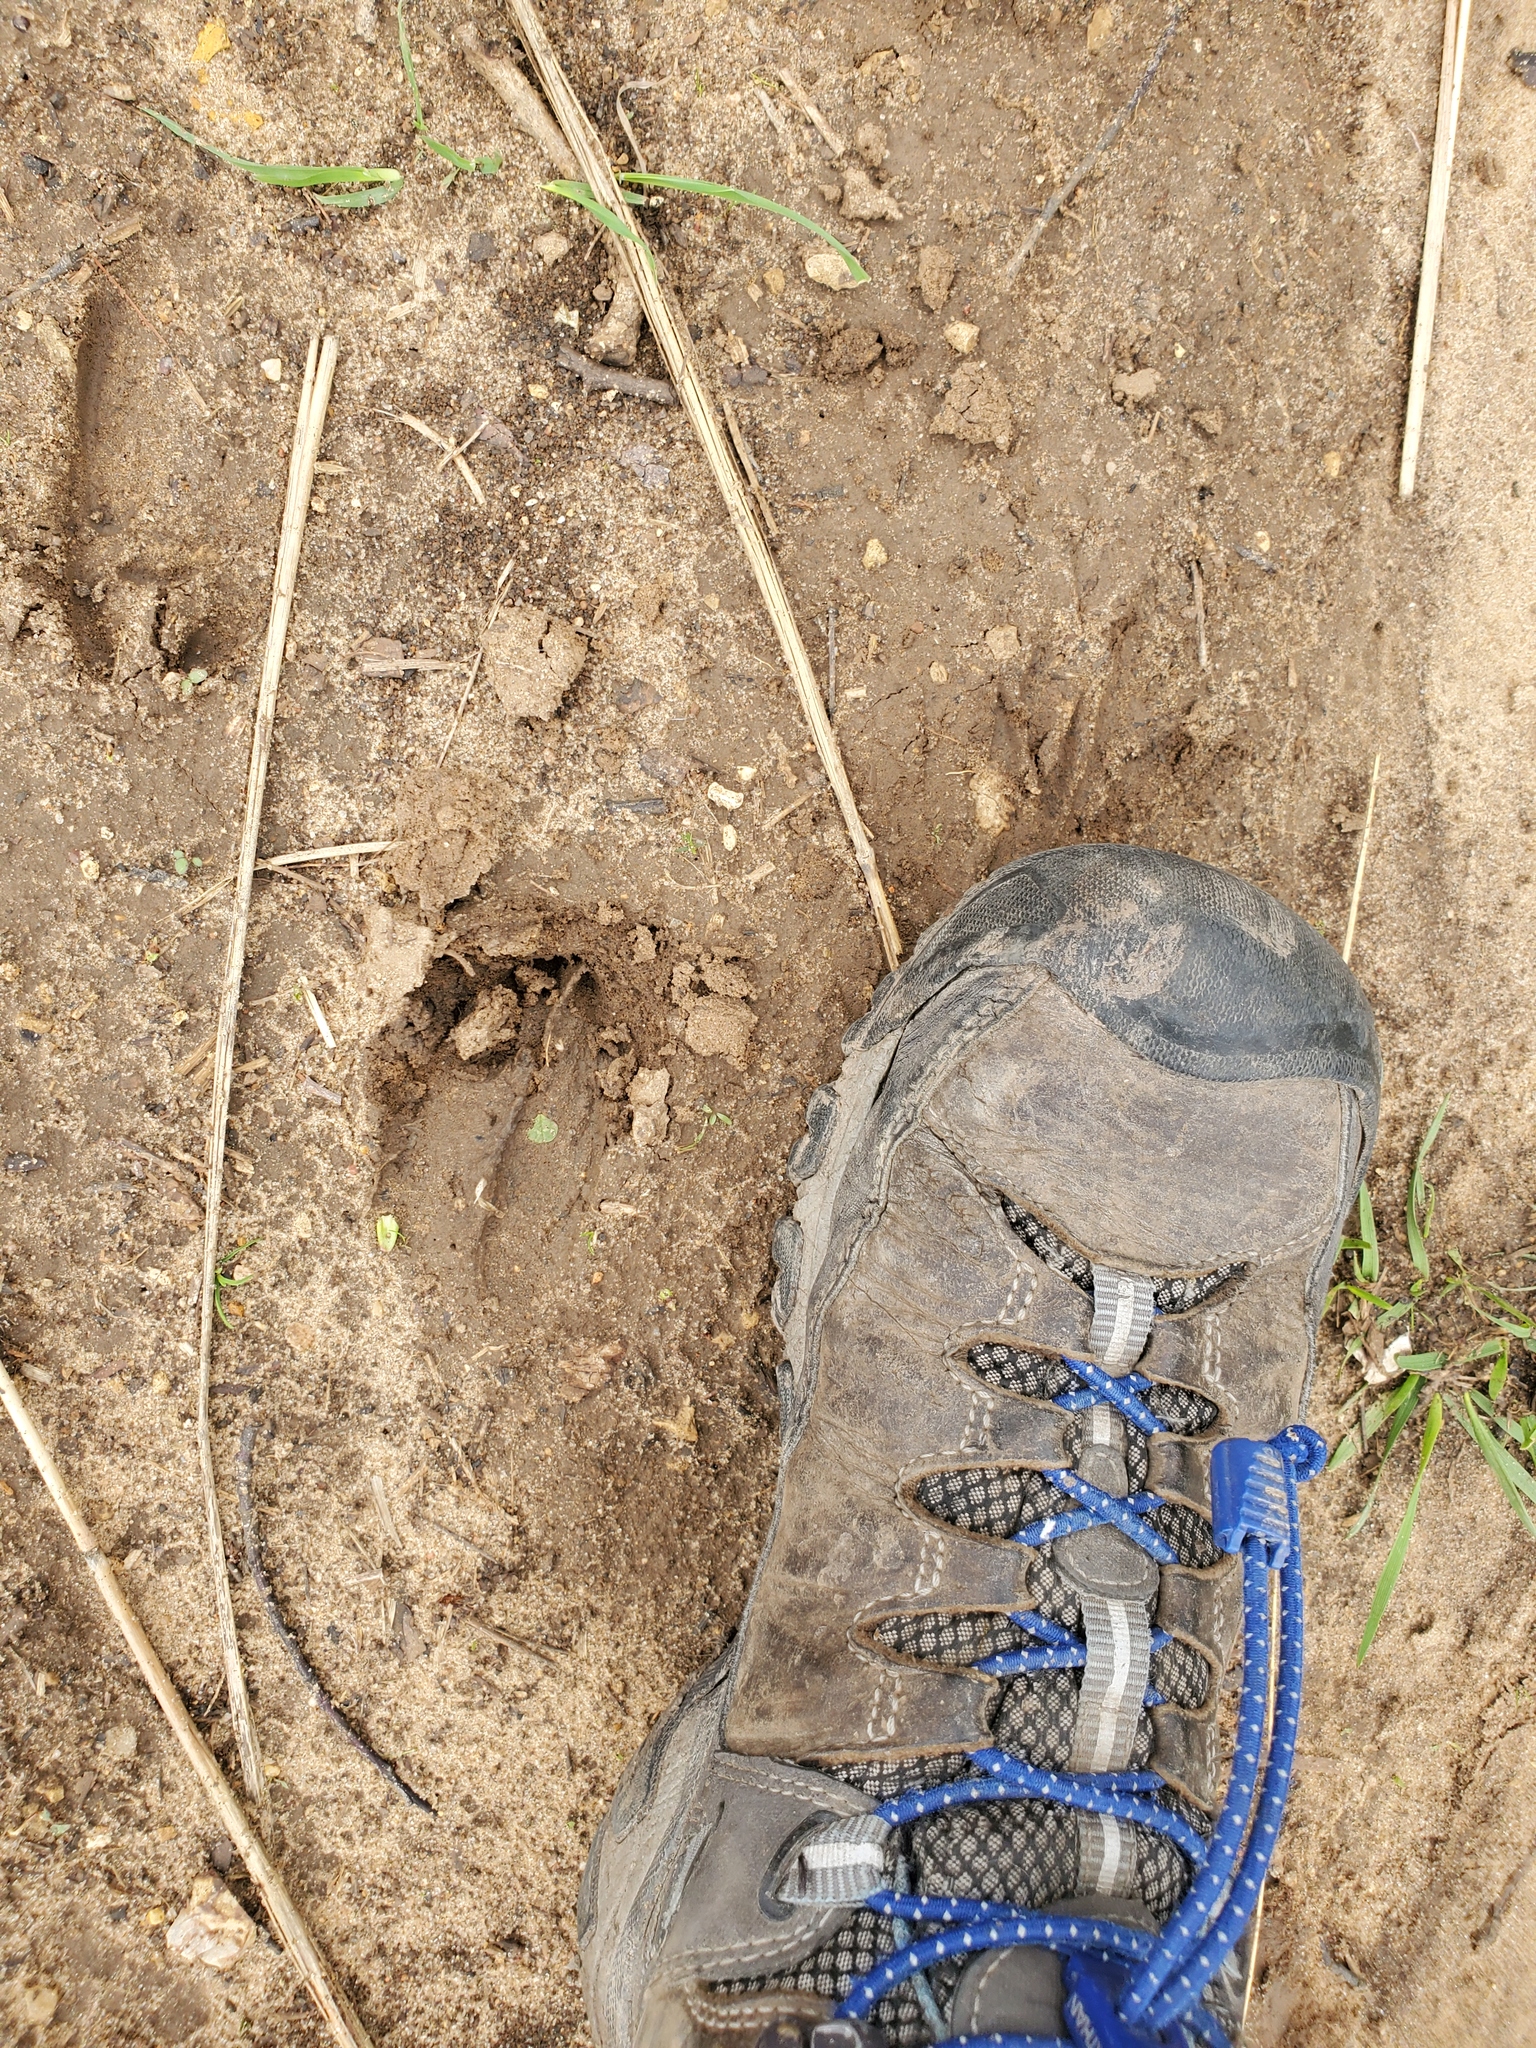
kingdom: Animalia
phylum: Chordata
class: Mammalia
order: Artiodactyla
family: Cervidae
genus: Odocoileus
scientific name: Odocoileus virginianus
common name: White-tailed deer
